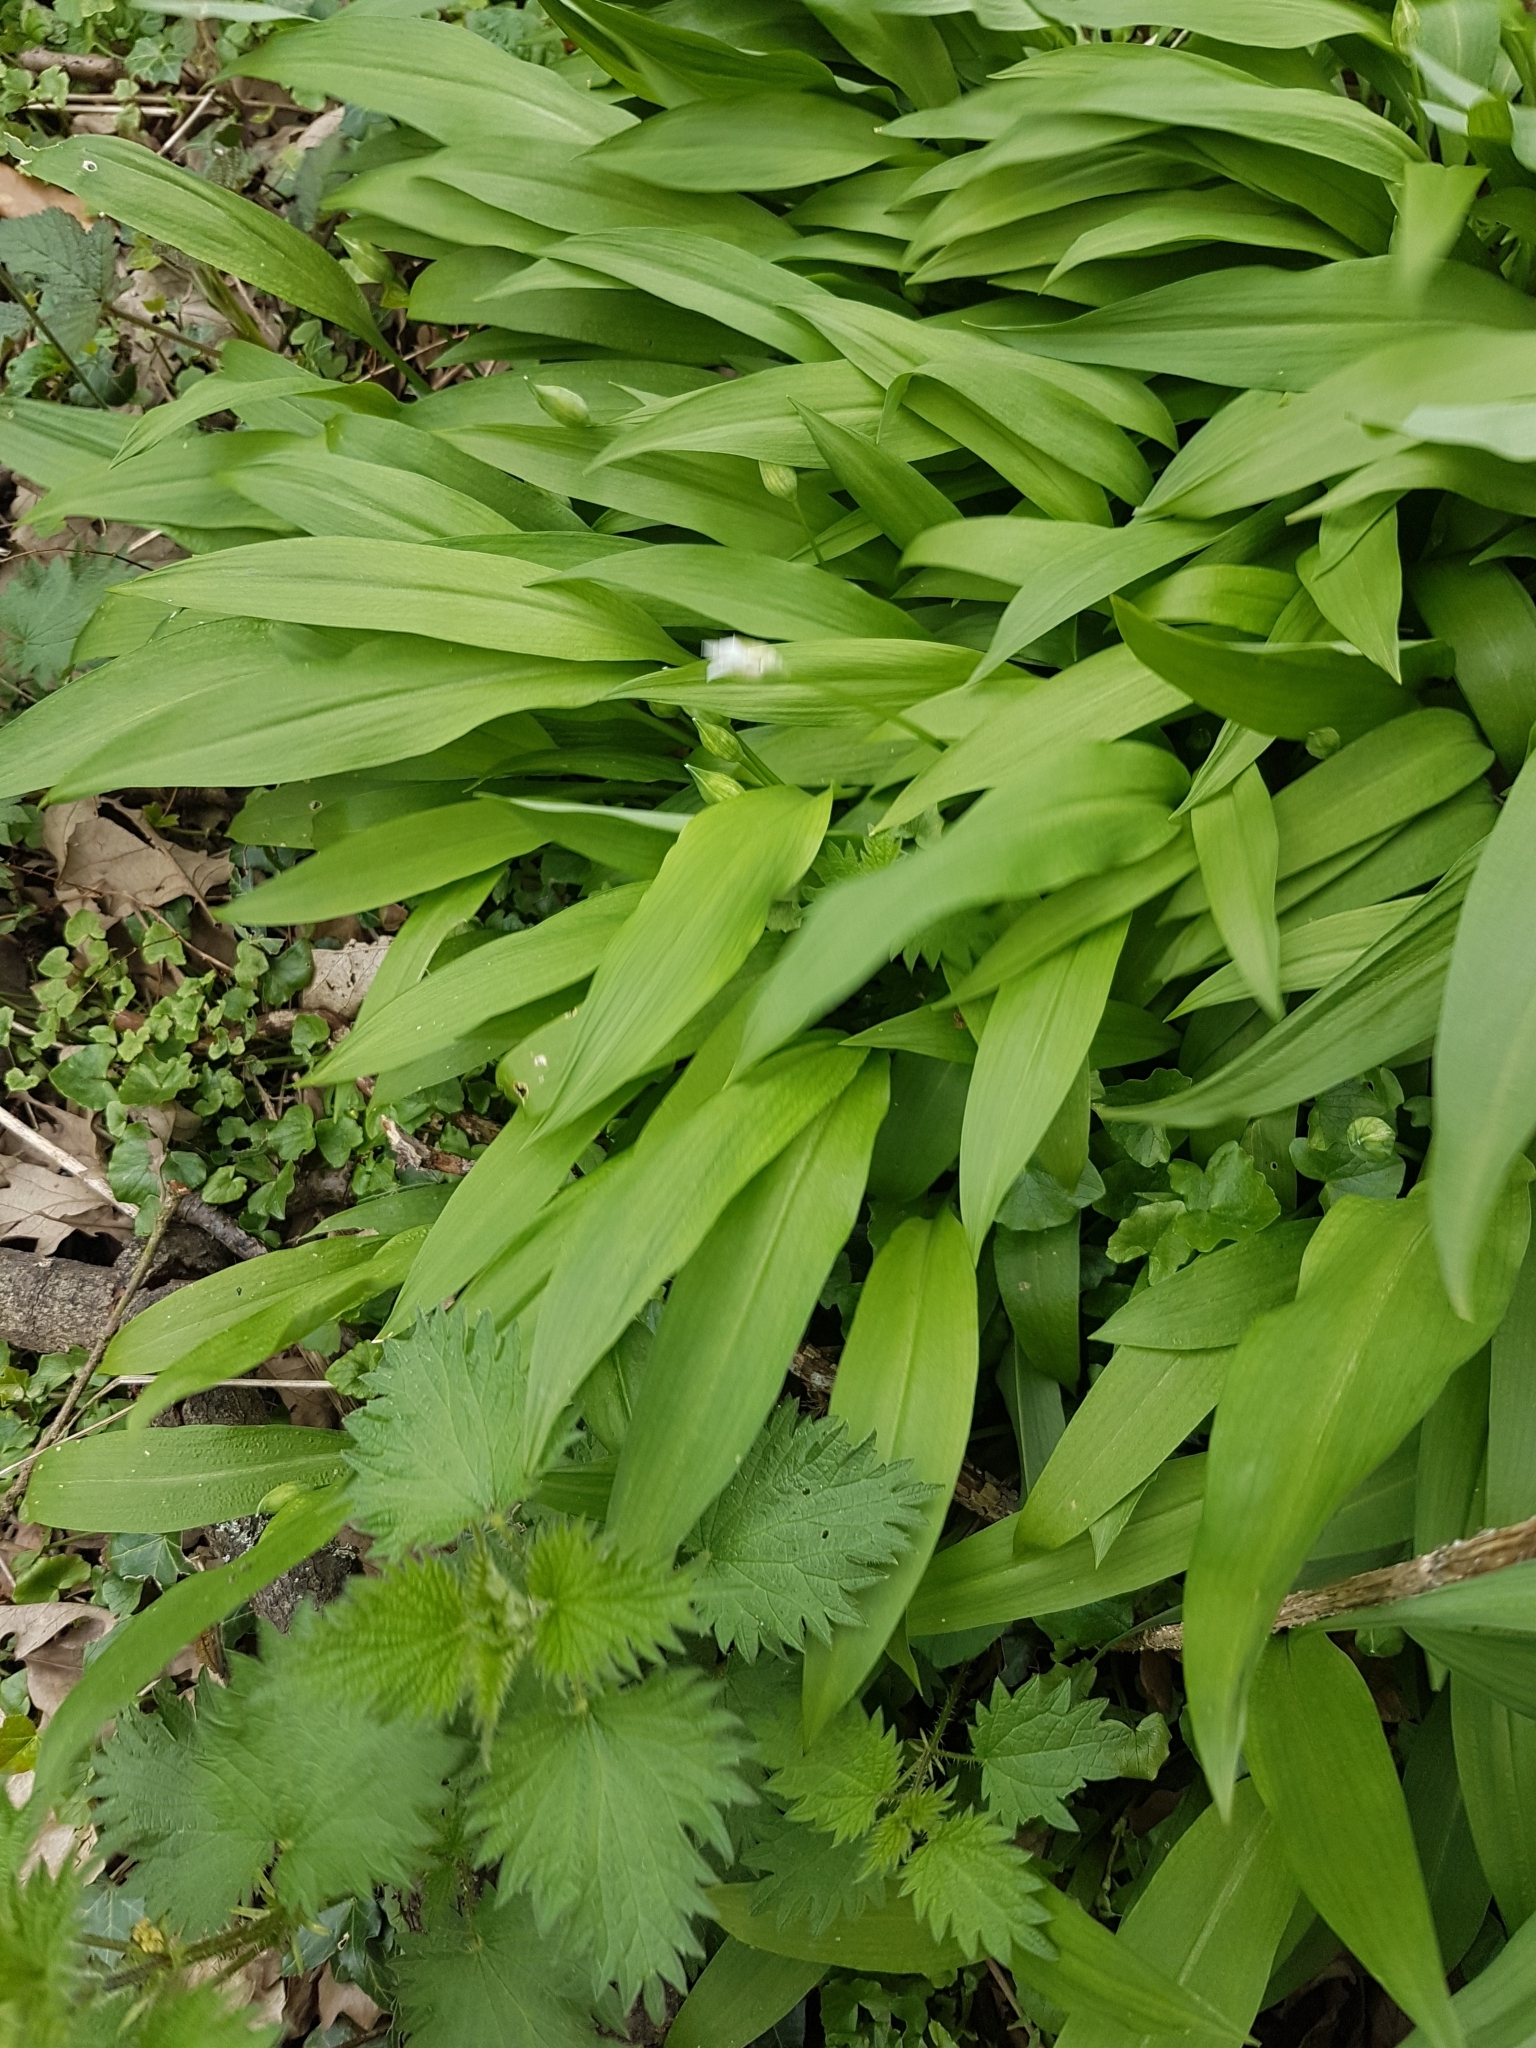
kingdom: Plantae
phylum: Tracheophyta
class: Liliopsida
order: Asparagales
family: Amaryllidaceae
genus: Allium
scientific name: Allium ursinum
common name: Ramsons
